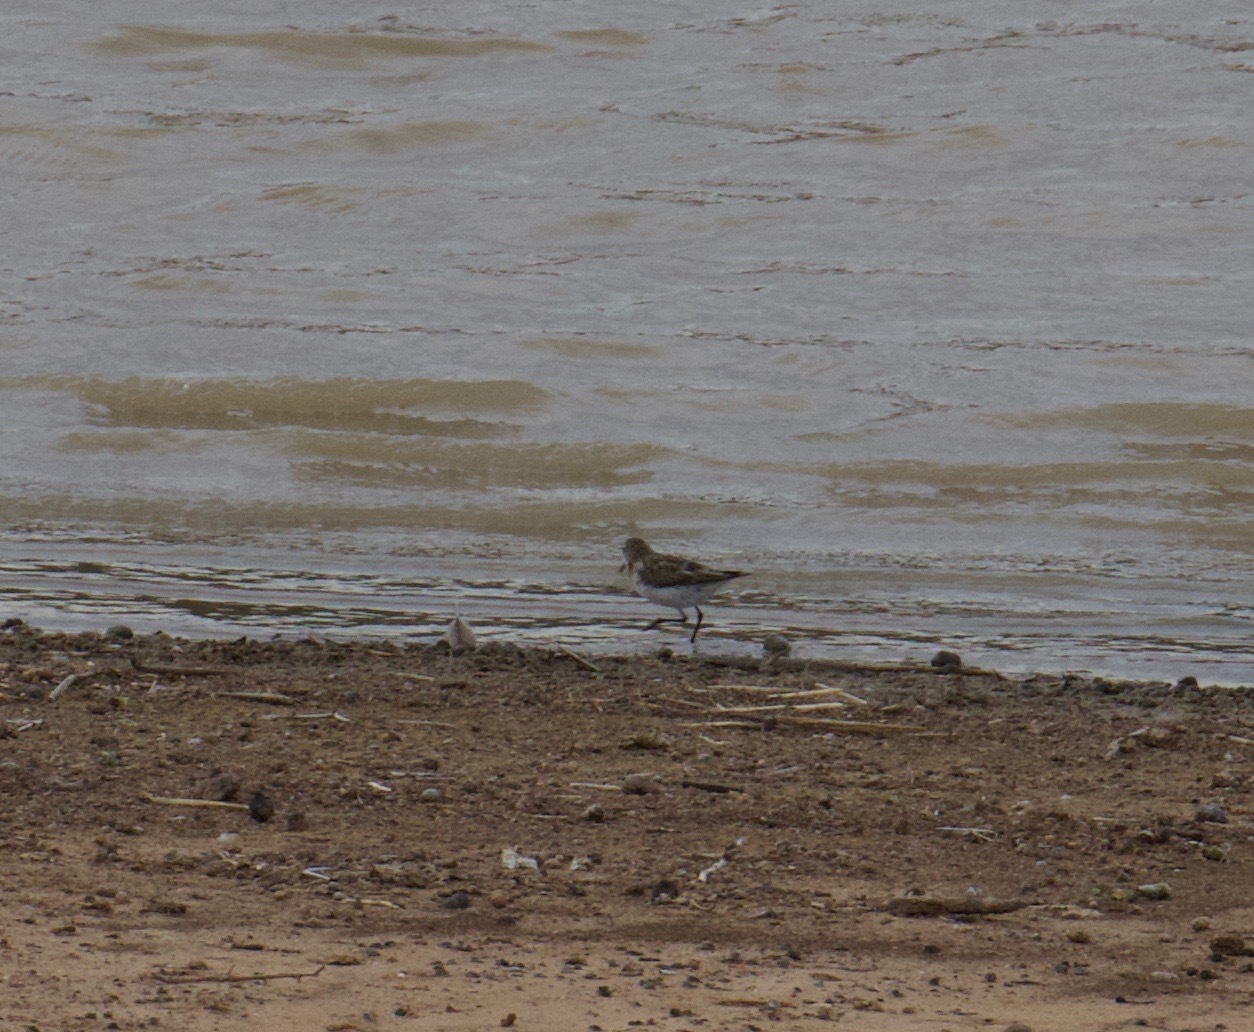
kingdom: Animalia
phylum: Chordata
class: Aves
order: Charadriiformes
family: Scolopacidae
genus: Calidris
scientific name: Calidris minuta
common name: Little stint
